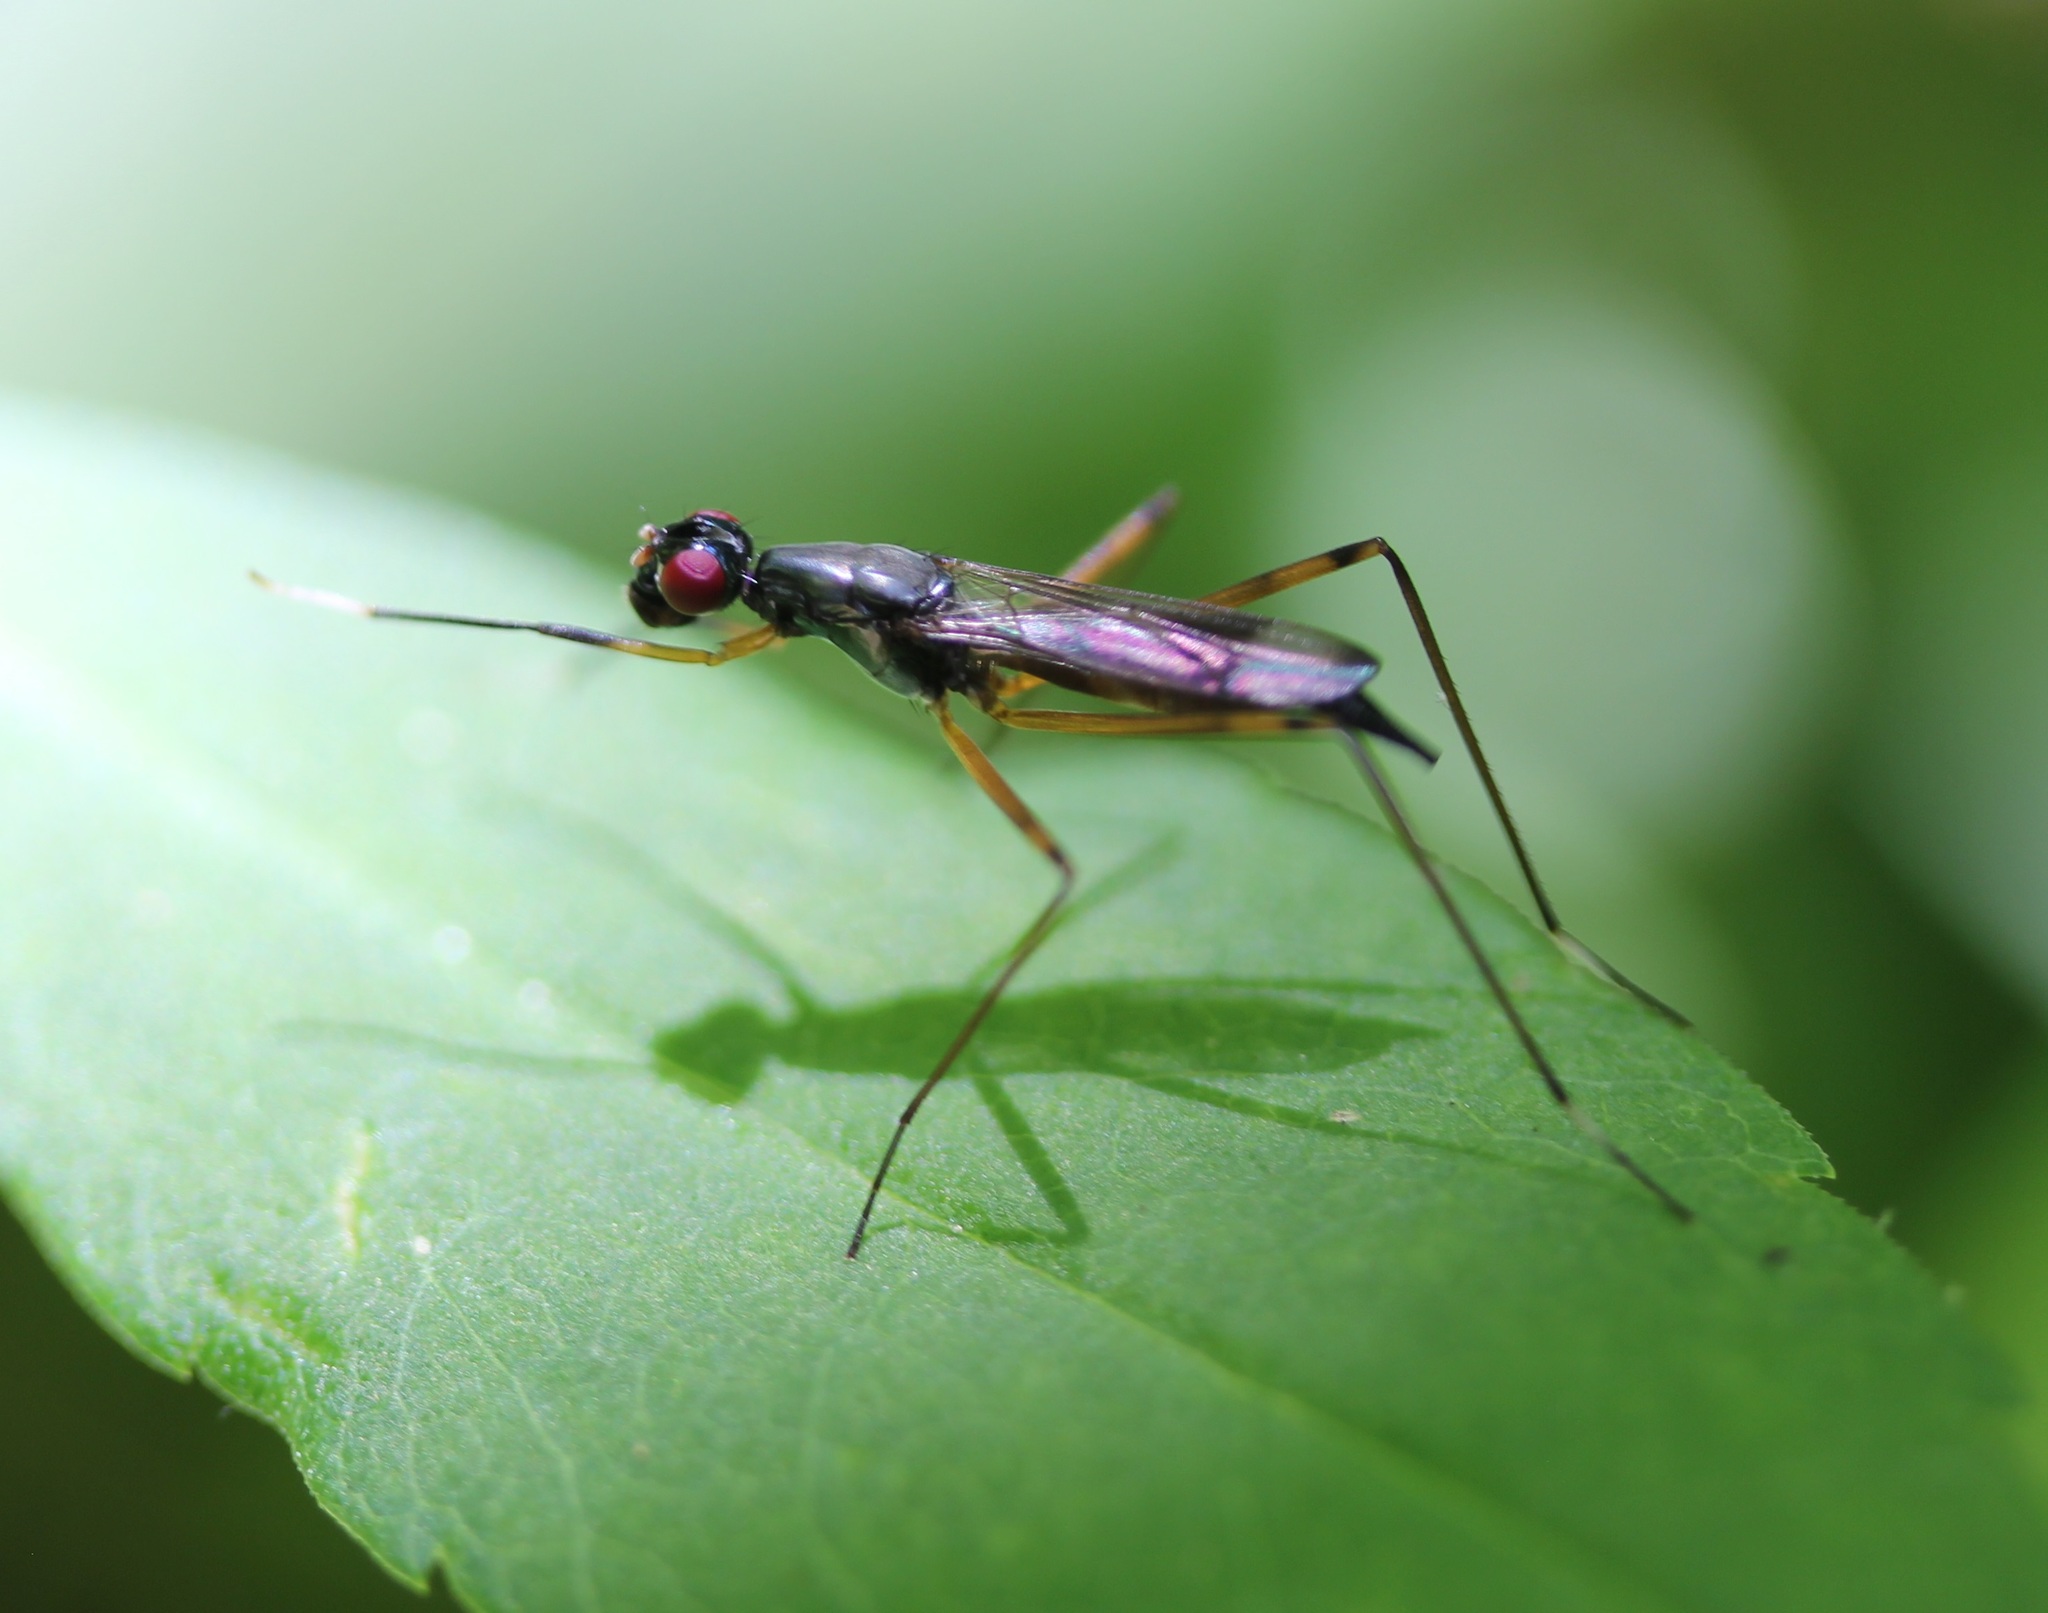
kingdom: Animalia
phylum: Arthropoda
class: Insecta
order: Diptera
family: Micropezidae
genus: Rainieria
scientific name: Rainieria antennaepes
